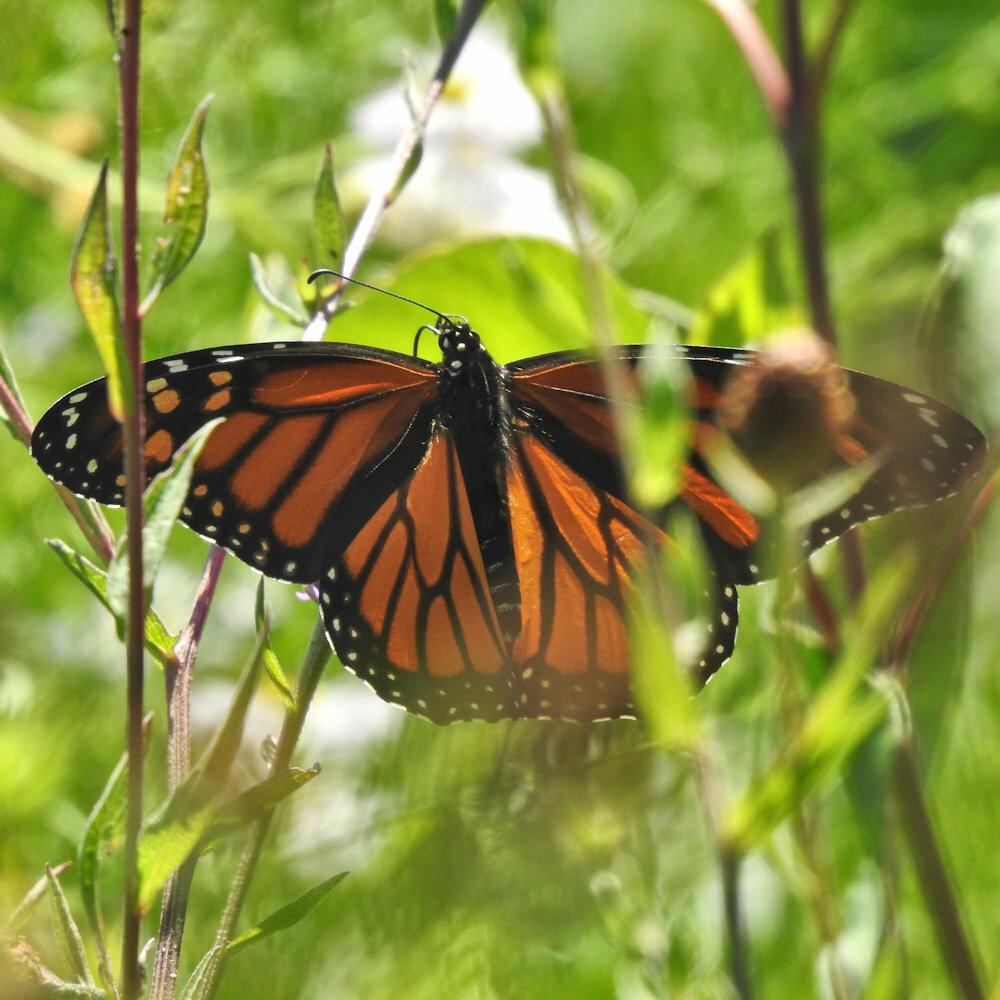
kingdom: Animalia
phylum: Arthropoda
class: Insecta
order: Lepidoptera
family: Nymphalidae
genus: Danaus
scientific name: Danaus plexippus
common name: Monarch
